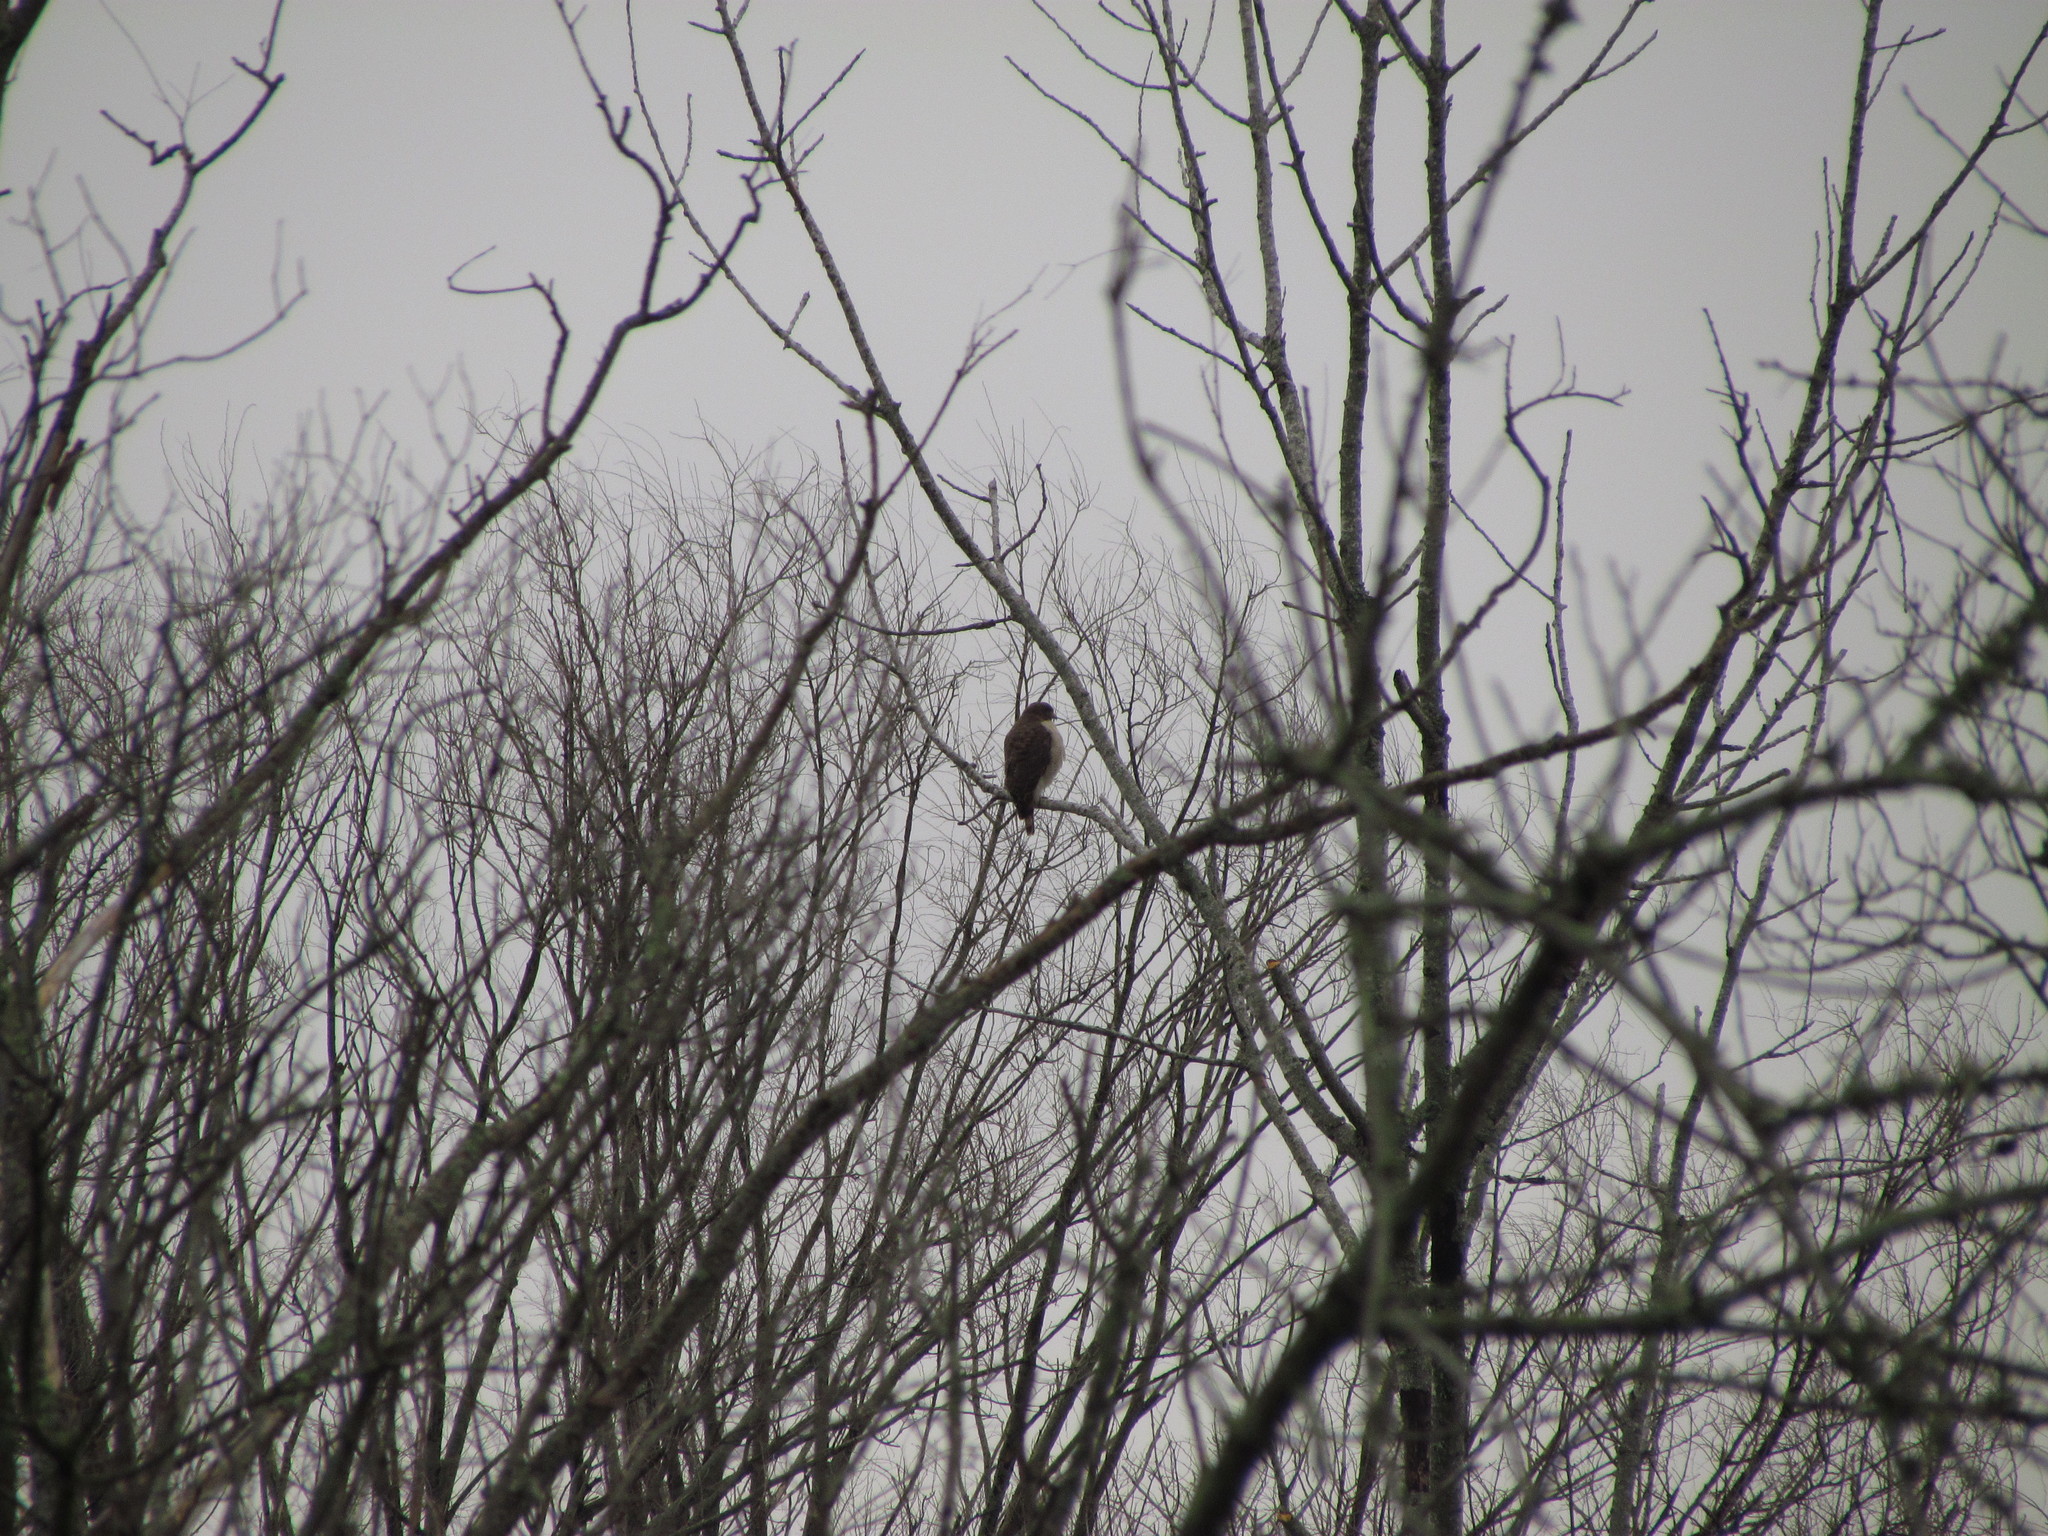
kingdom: Animalia
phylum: Chordata
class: Aves
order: Accipitriformes
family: Accipitridae
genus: Rupornis
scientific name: Rupornis magnirostris
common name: Roadside hawk
